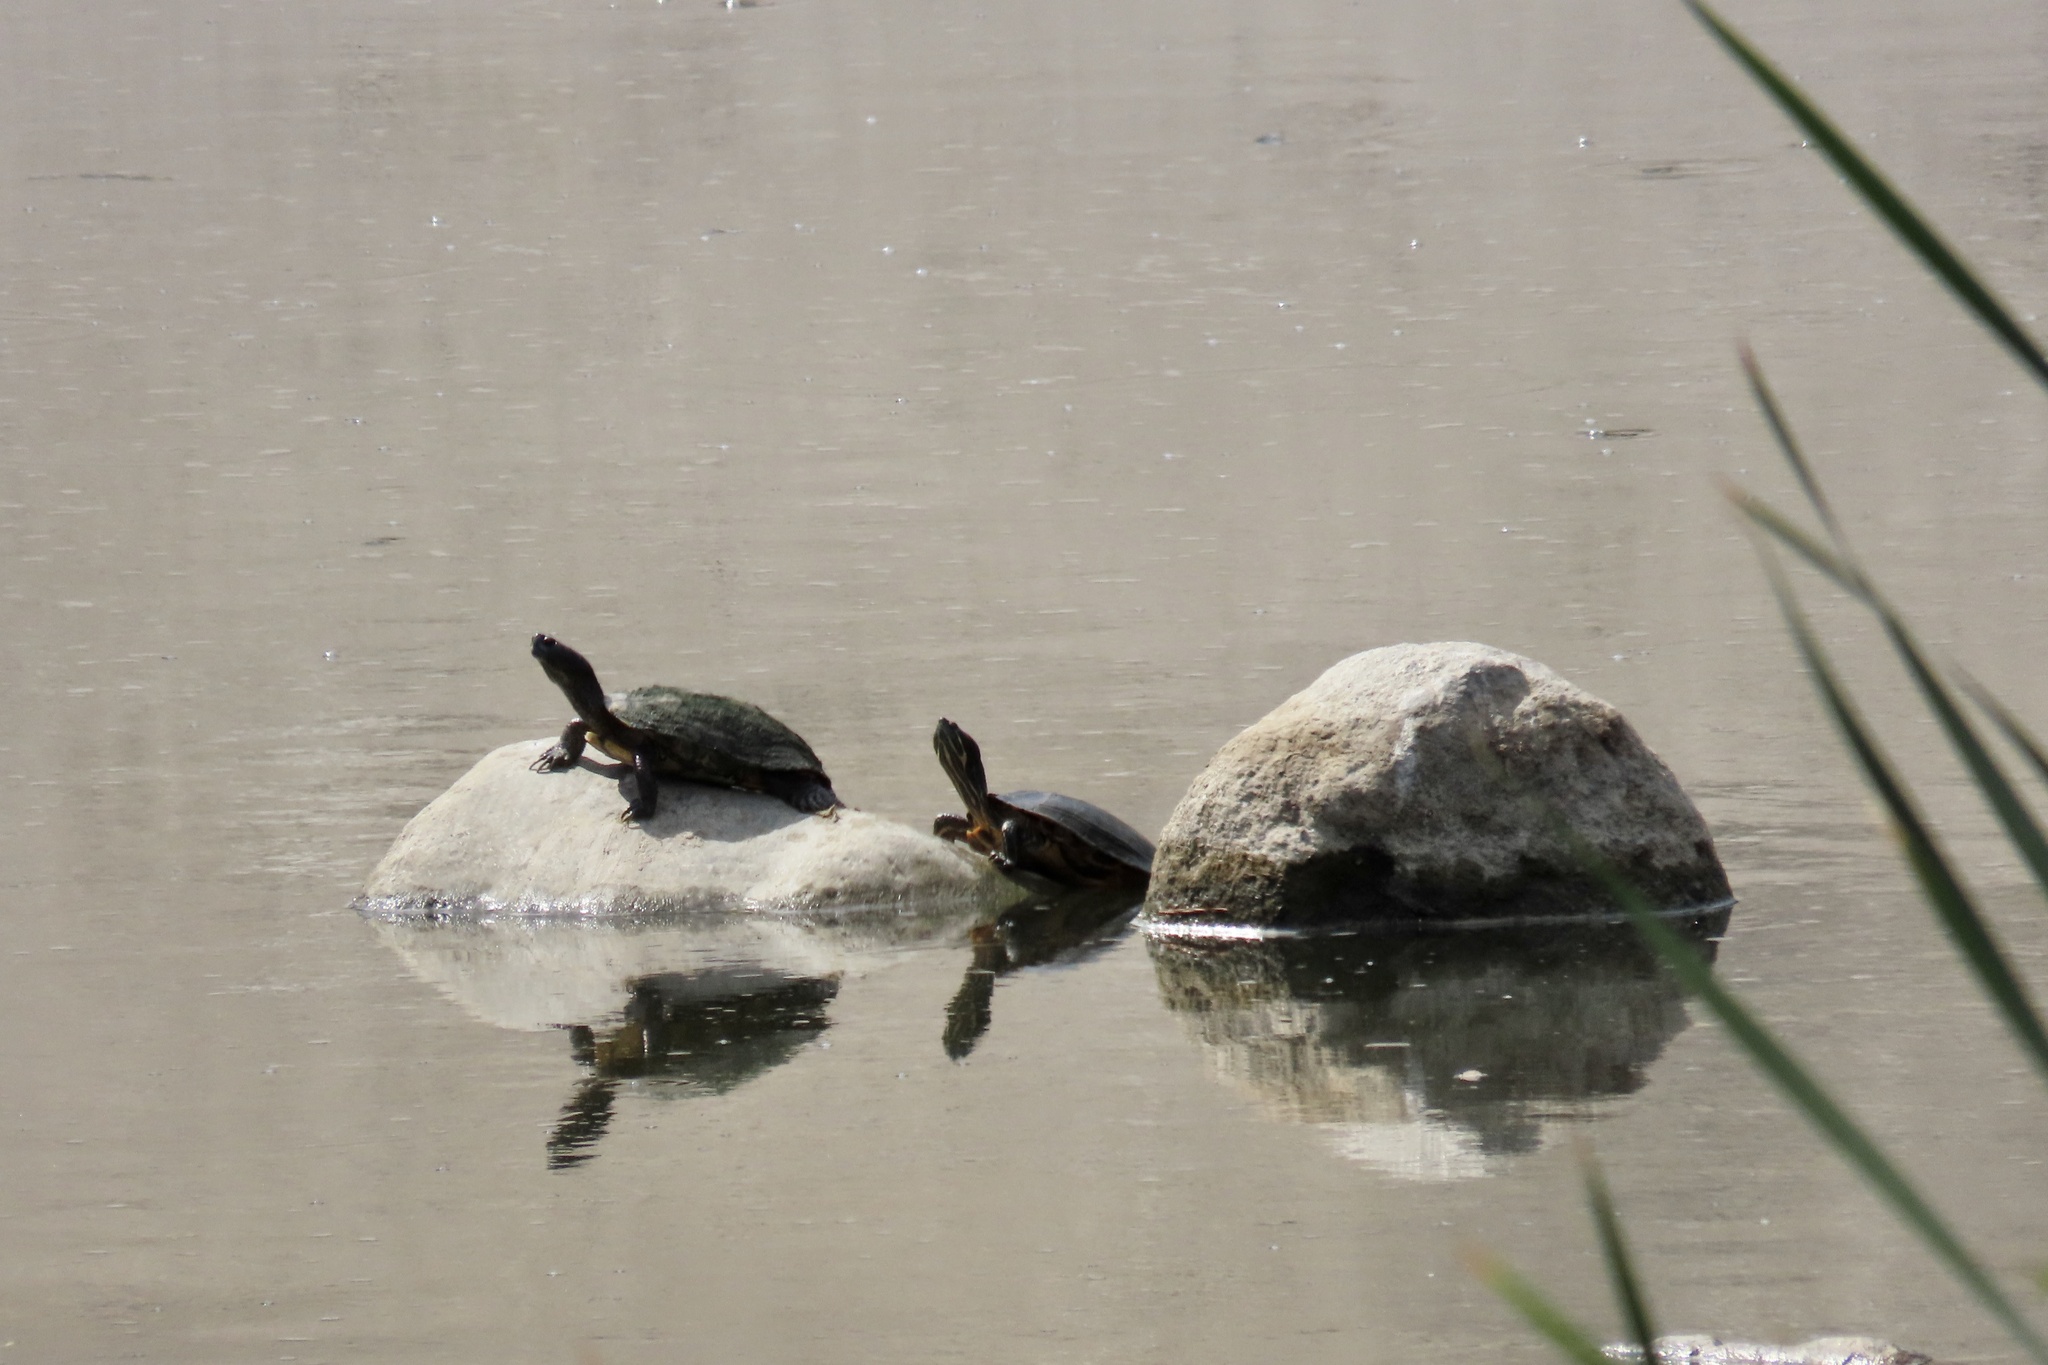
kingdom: Animalia
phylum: Chordata
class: Testudines
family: Emydidae
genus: Trachemys
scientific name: Trachemys scripta
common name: Slider
